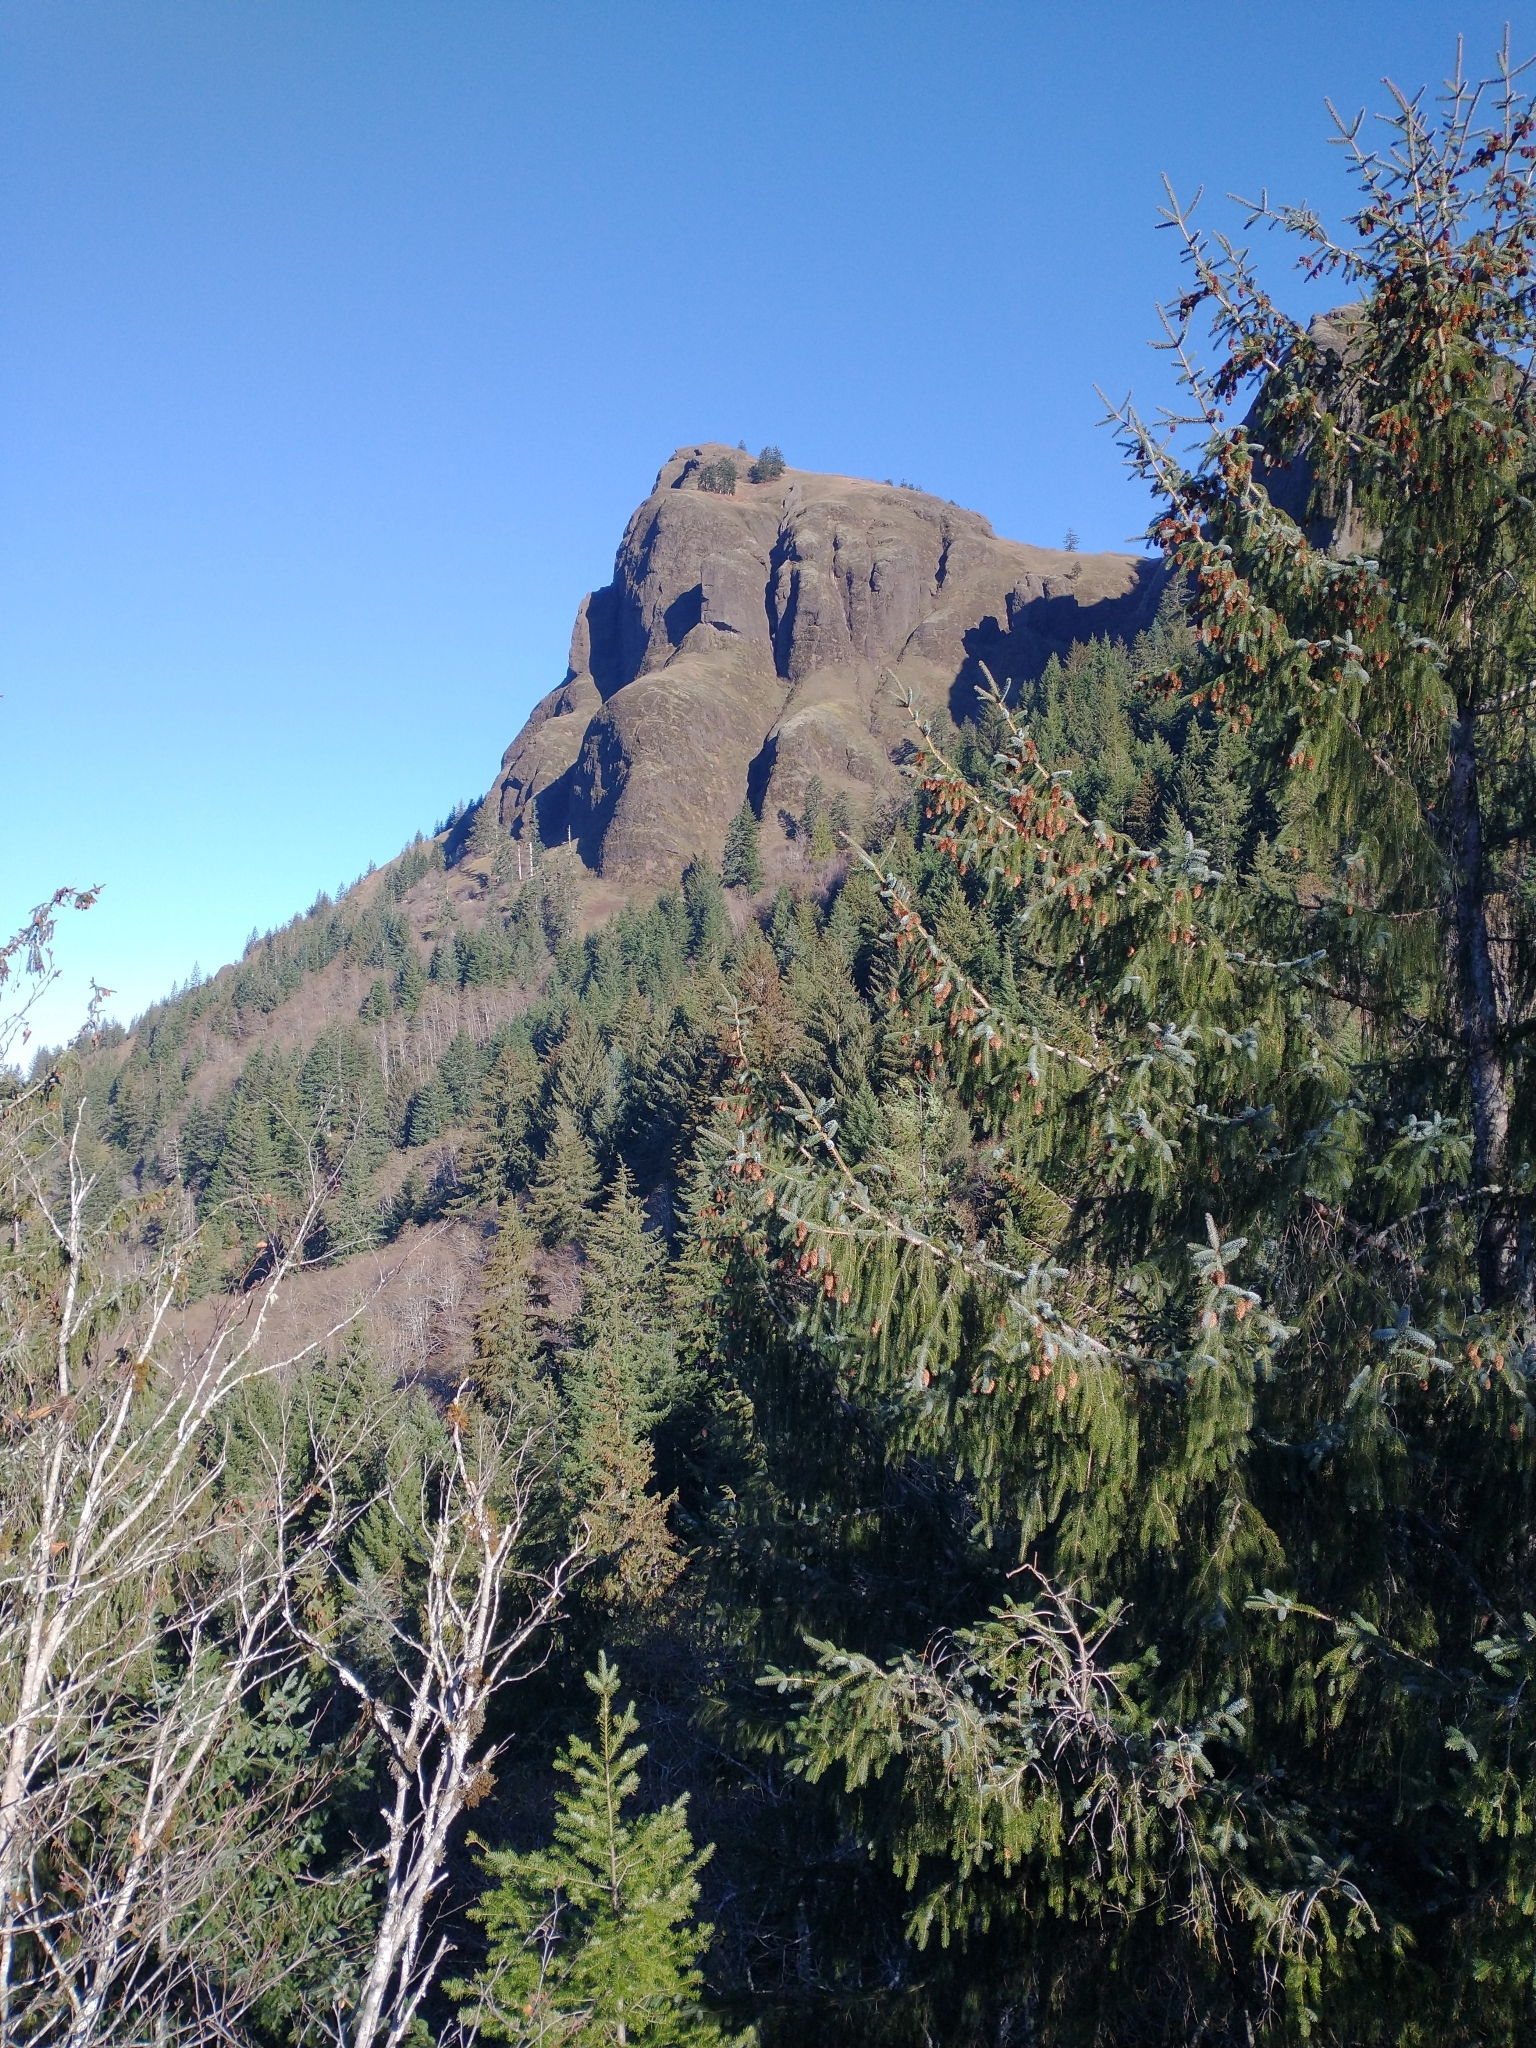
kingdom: Plantae
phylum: Tracheophyta
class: Pinopsida
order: Pinales
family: Pinaceae
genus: Picea
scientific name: Picea sitchensis
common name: Sitka spruce
